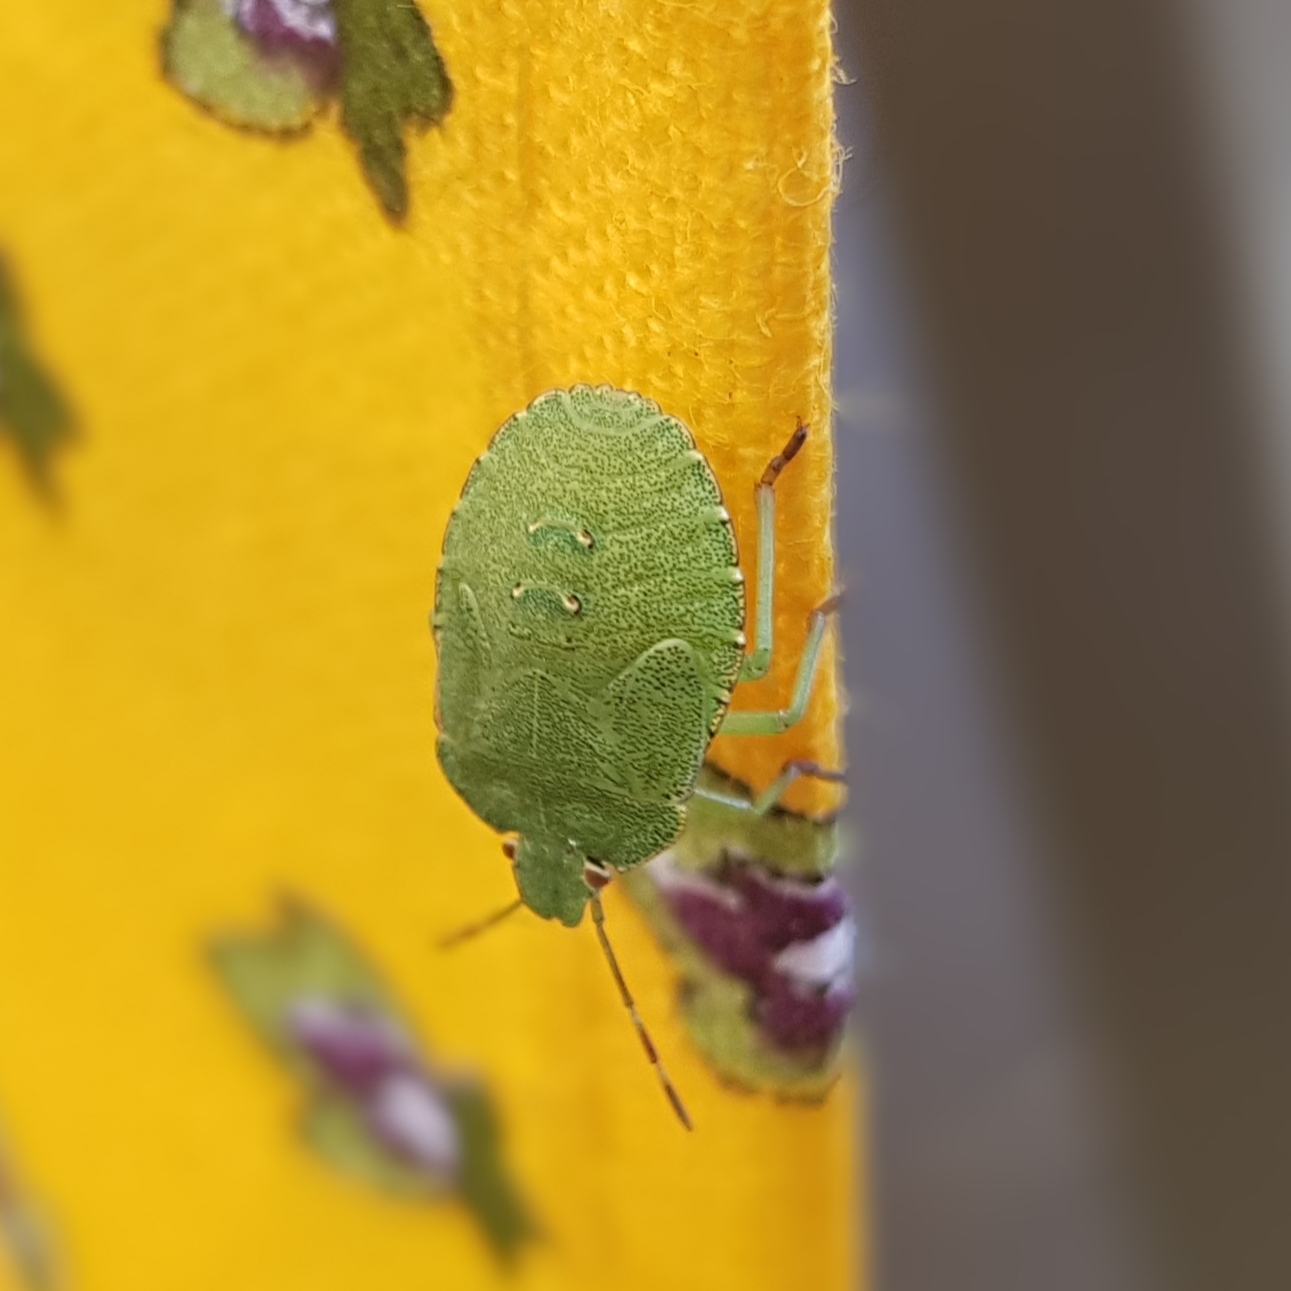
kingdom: Animalia
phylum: Arthropoda
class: Insecta
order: Hemiptera
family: Pentatomidae
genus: Palomena
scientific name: Palomena prasina
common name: Green shieldbug
